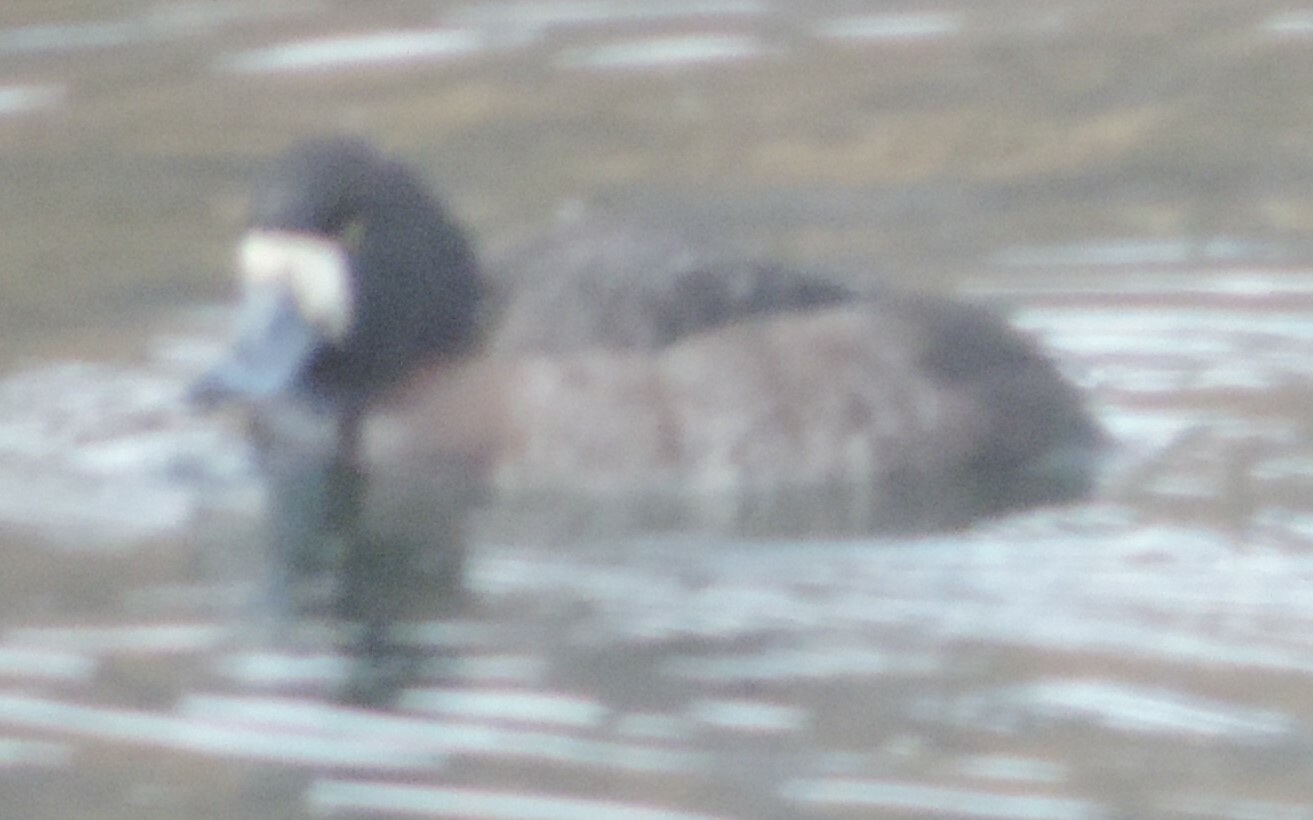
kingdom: Animalia
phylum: Chordata
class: Aves
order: Anseriformes
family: Anatidae
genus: Aythya
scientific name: Aythya marila
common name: Greater scaup
